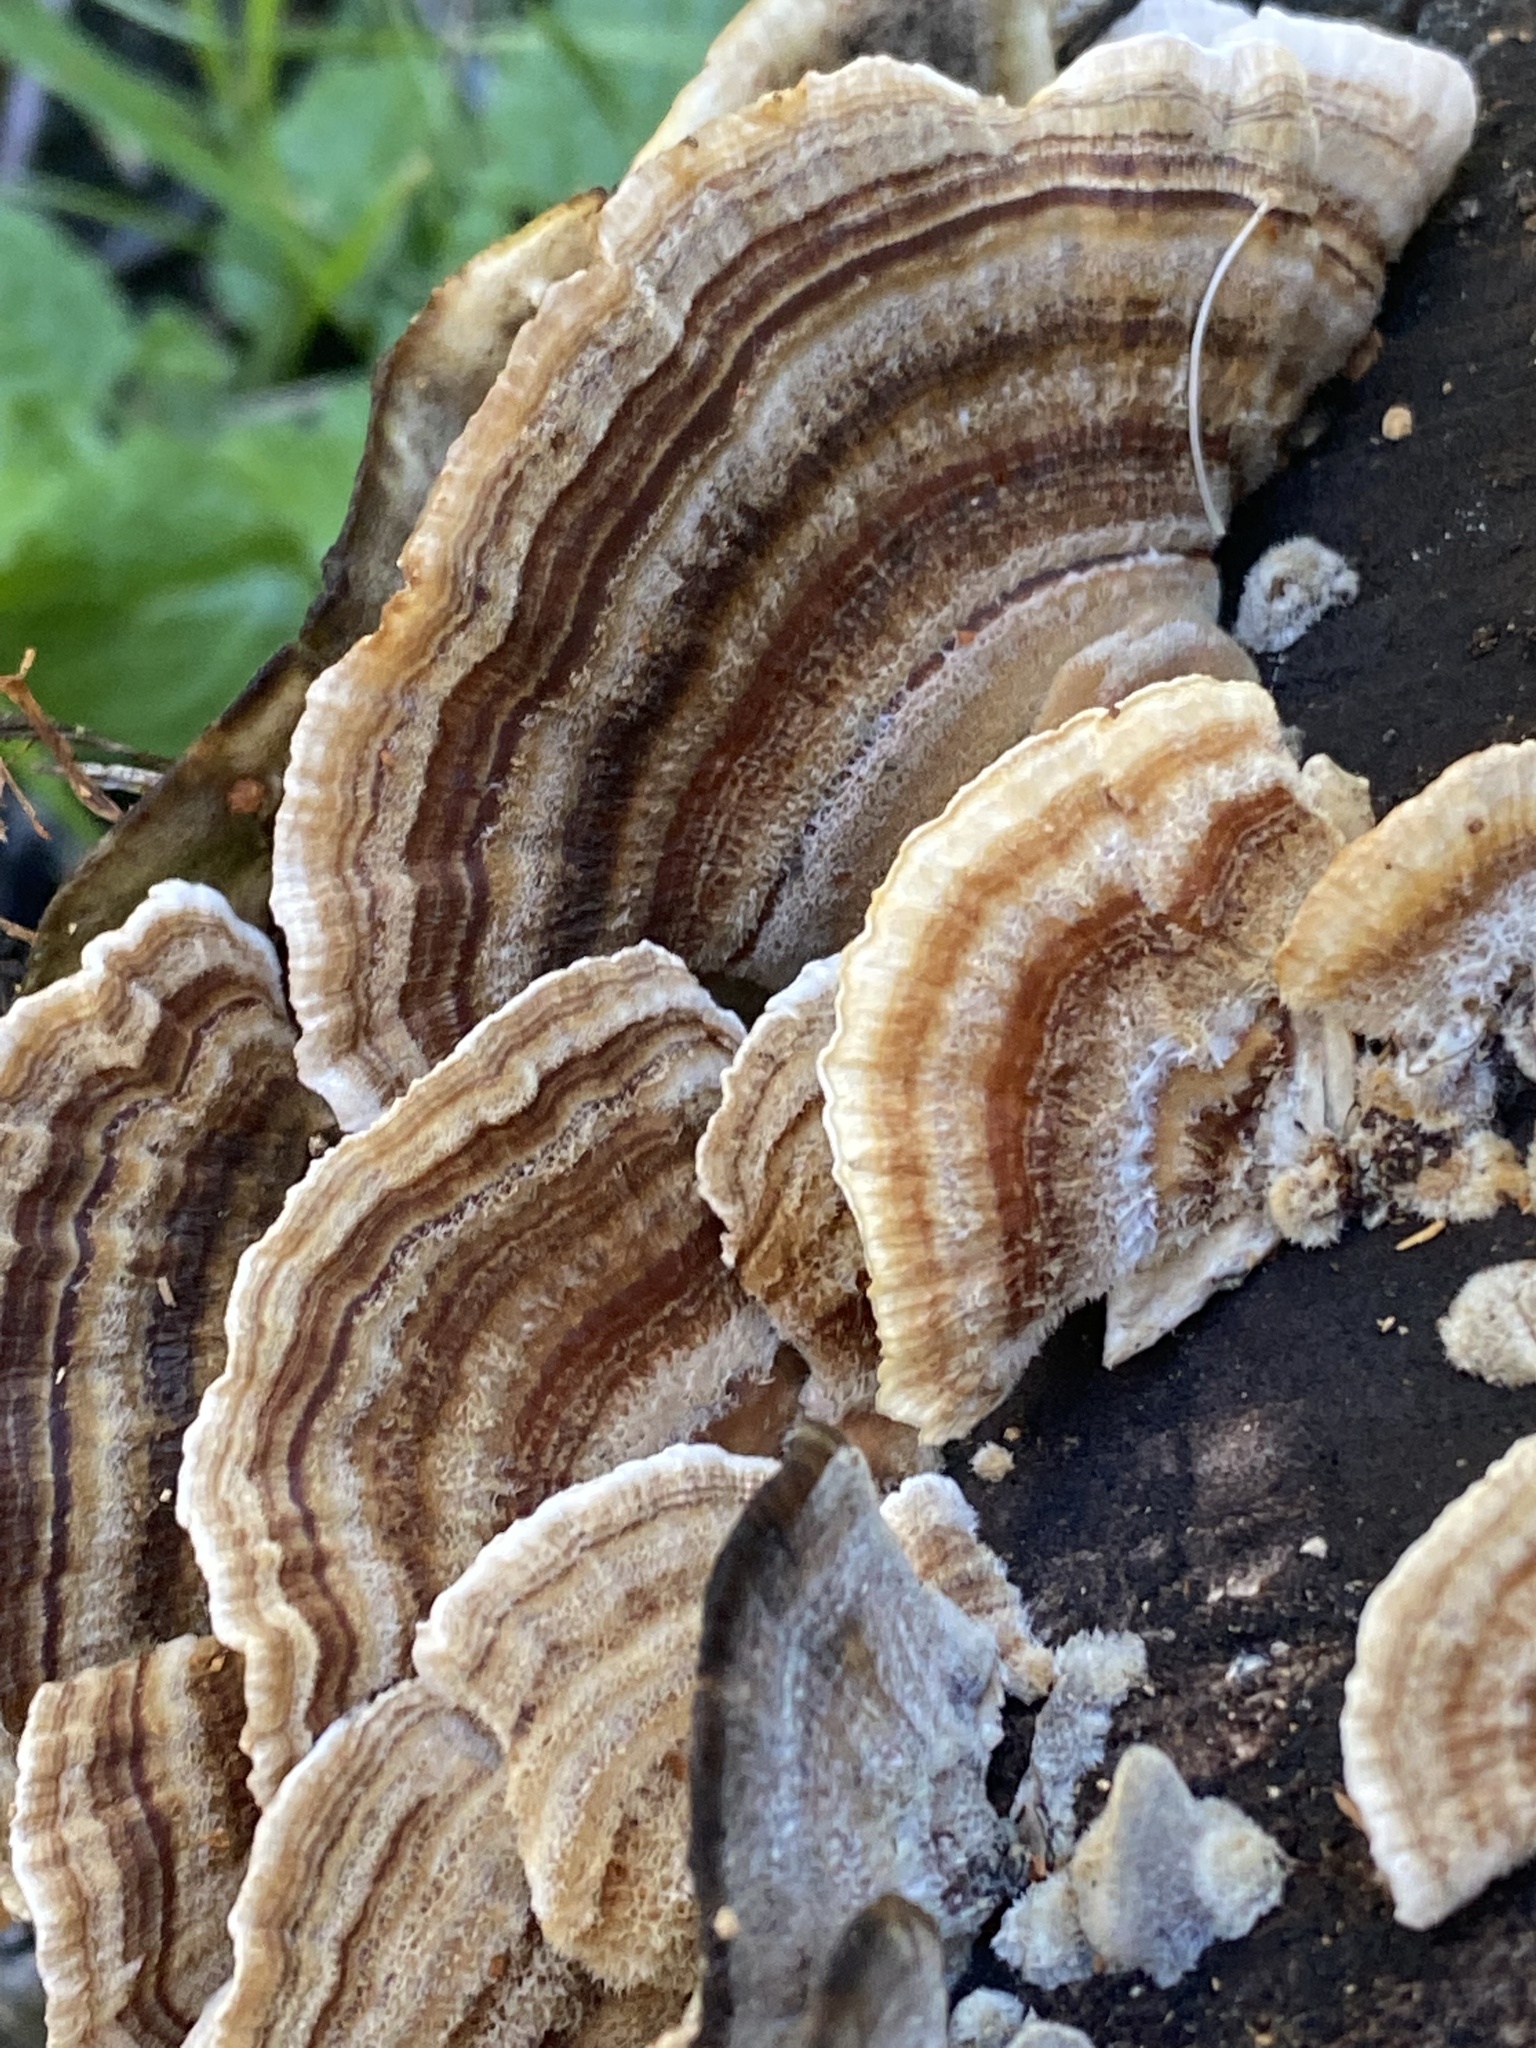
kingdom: Fungi
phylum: Basidiomycota
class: Agaricomycetes
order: Polyporales
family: Polyporaceae
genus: Trametes
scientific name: Trametes versicolor
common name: Turkeytail
